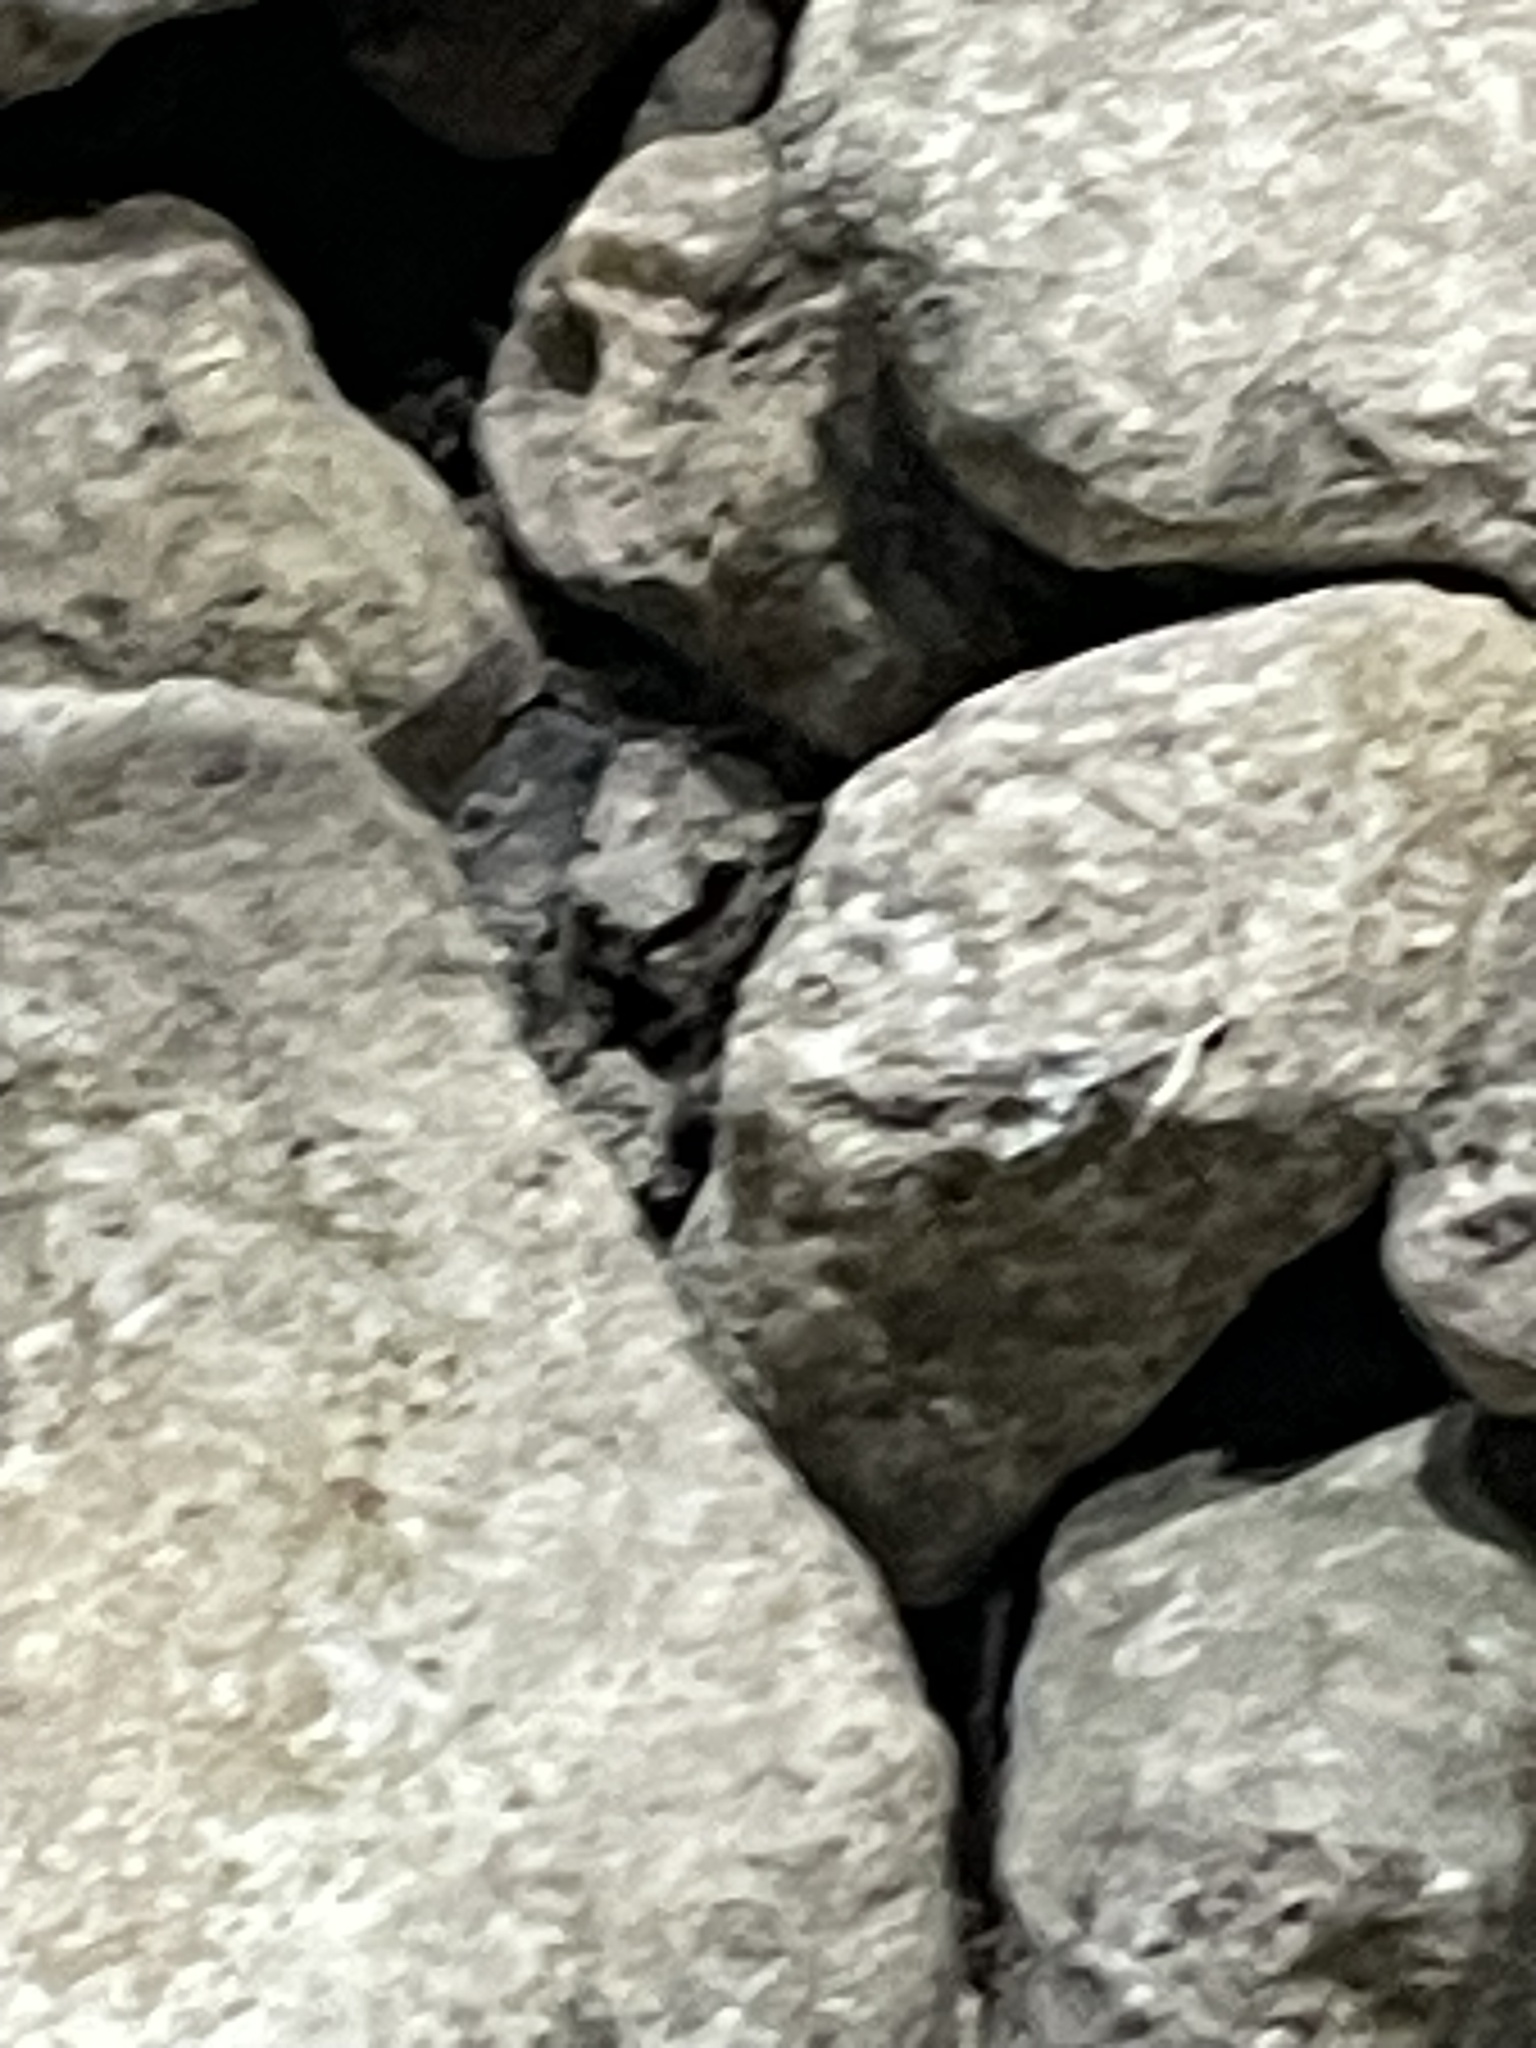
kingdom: Animalia
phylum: Arthropoda
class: Insecta
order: Hymenoptera
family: Formicidae
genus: Paratrechina
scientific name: Paratrechina longicornis
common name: Longhorned crazy ant
